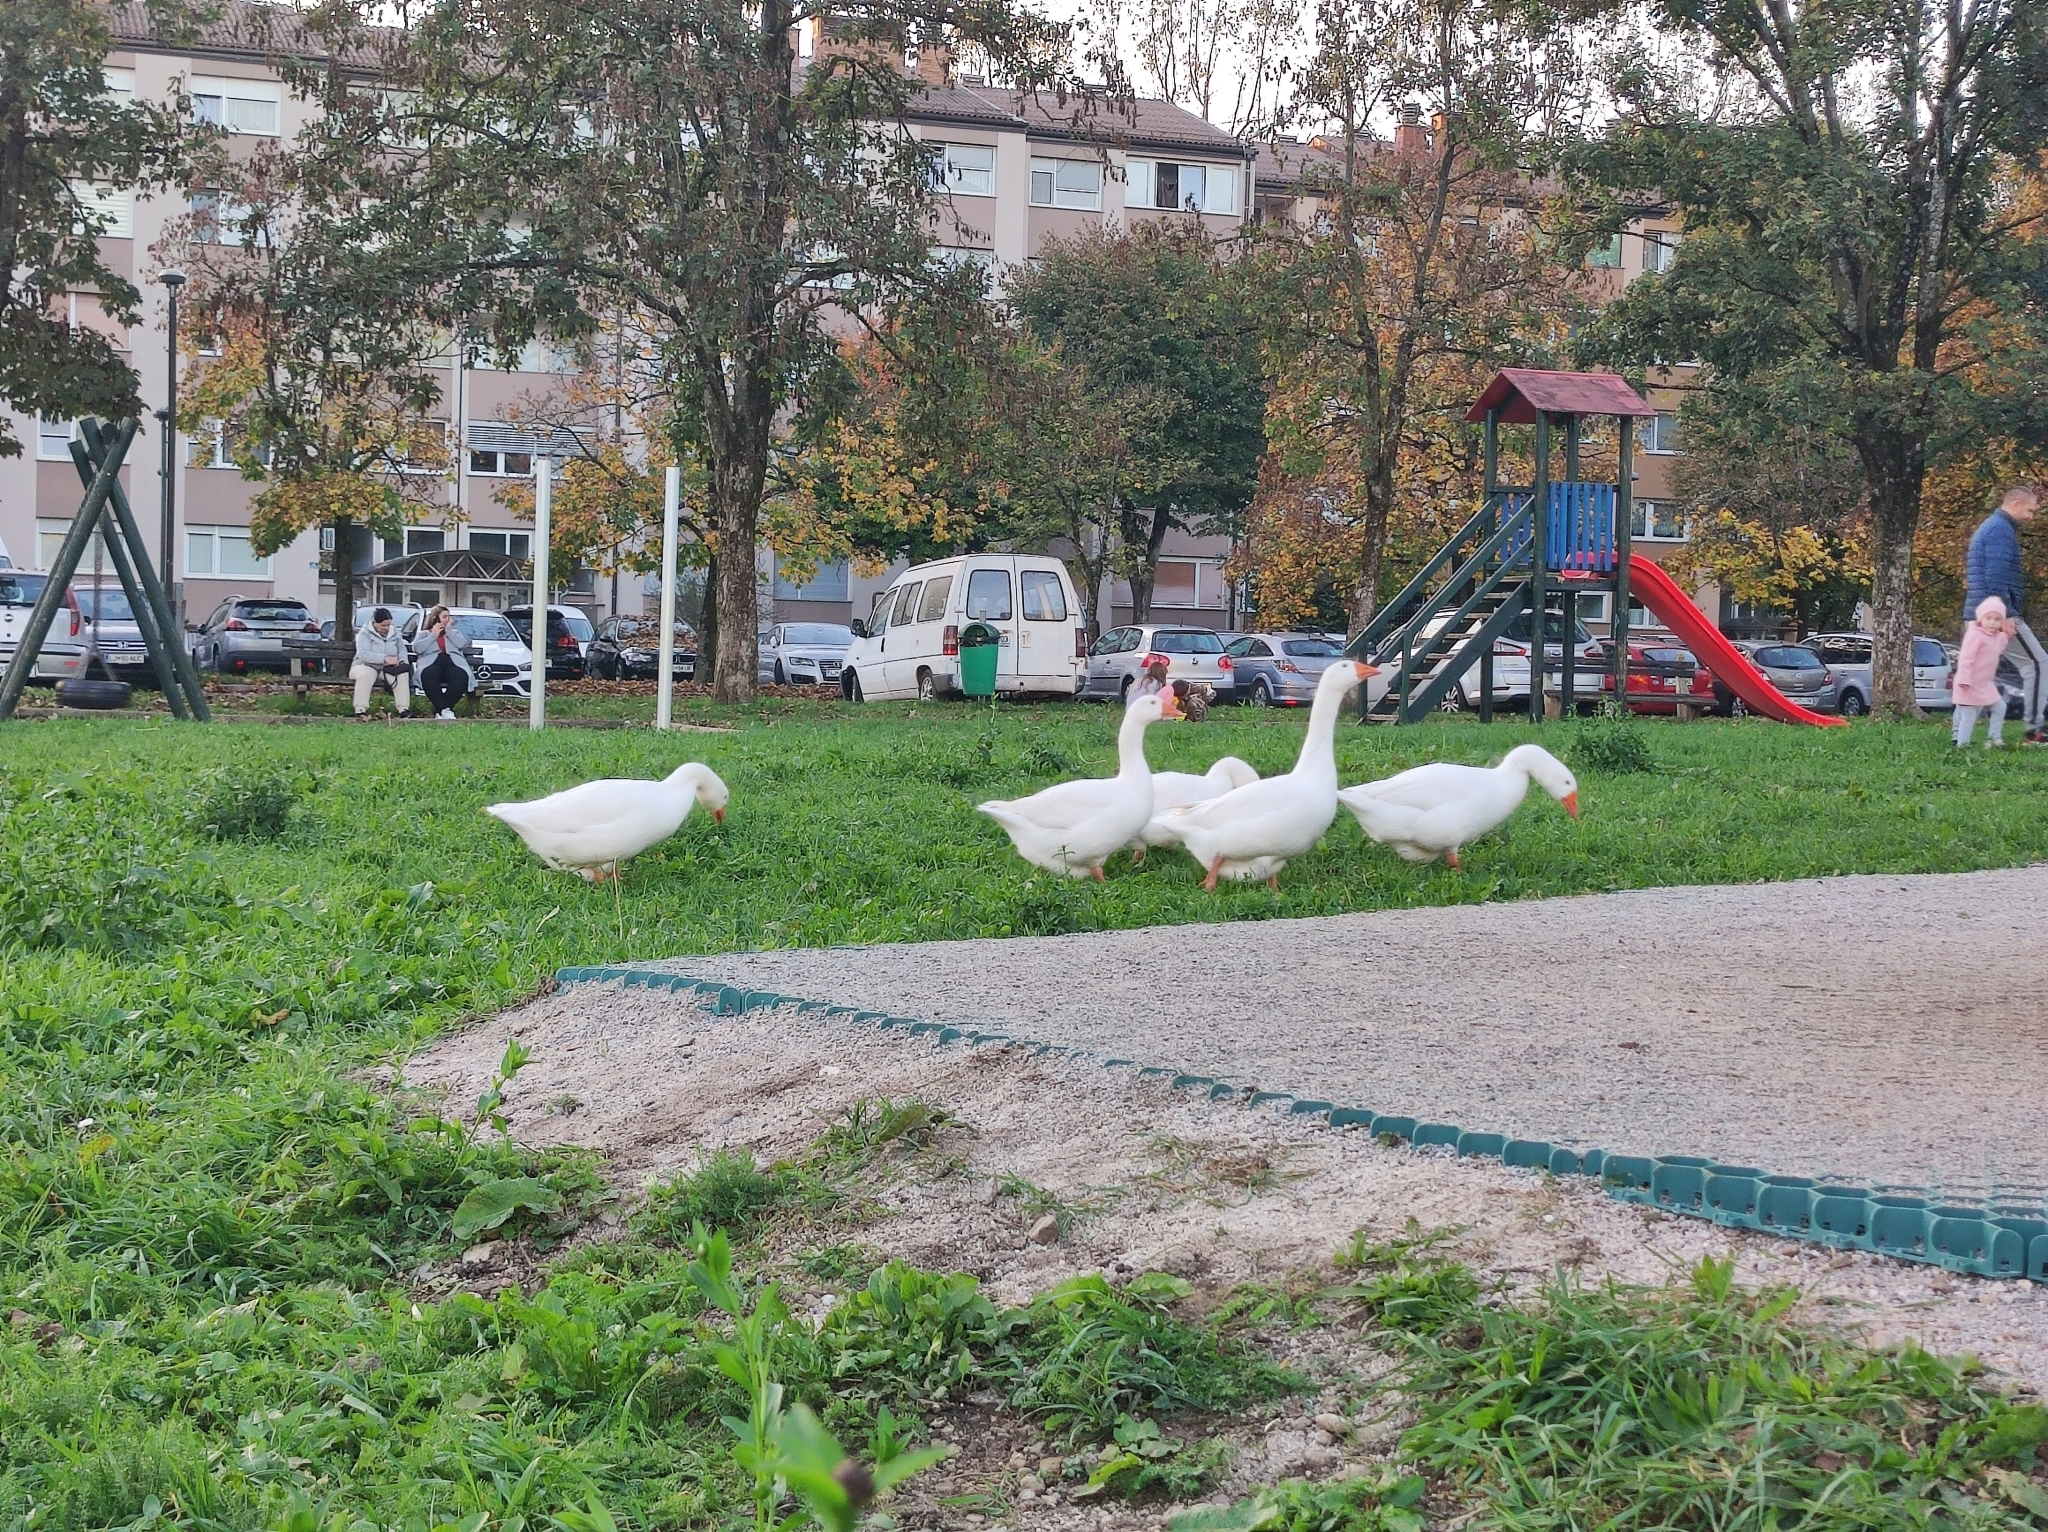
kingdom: Animalia
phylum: Chordata
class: Aves
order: Anseriformes
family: Anatidae
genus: Anser
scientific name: Anser anser
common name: Greylag goose
